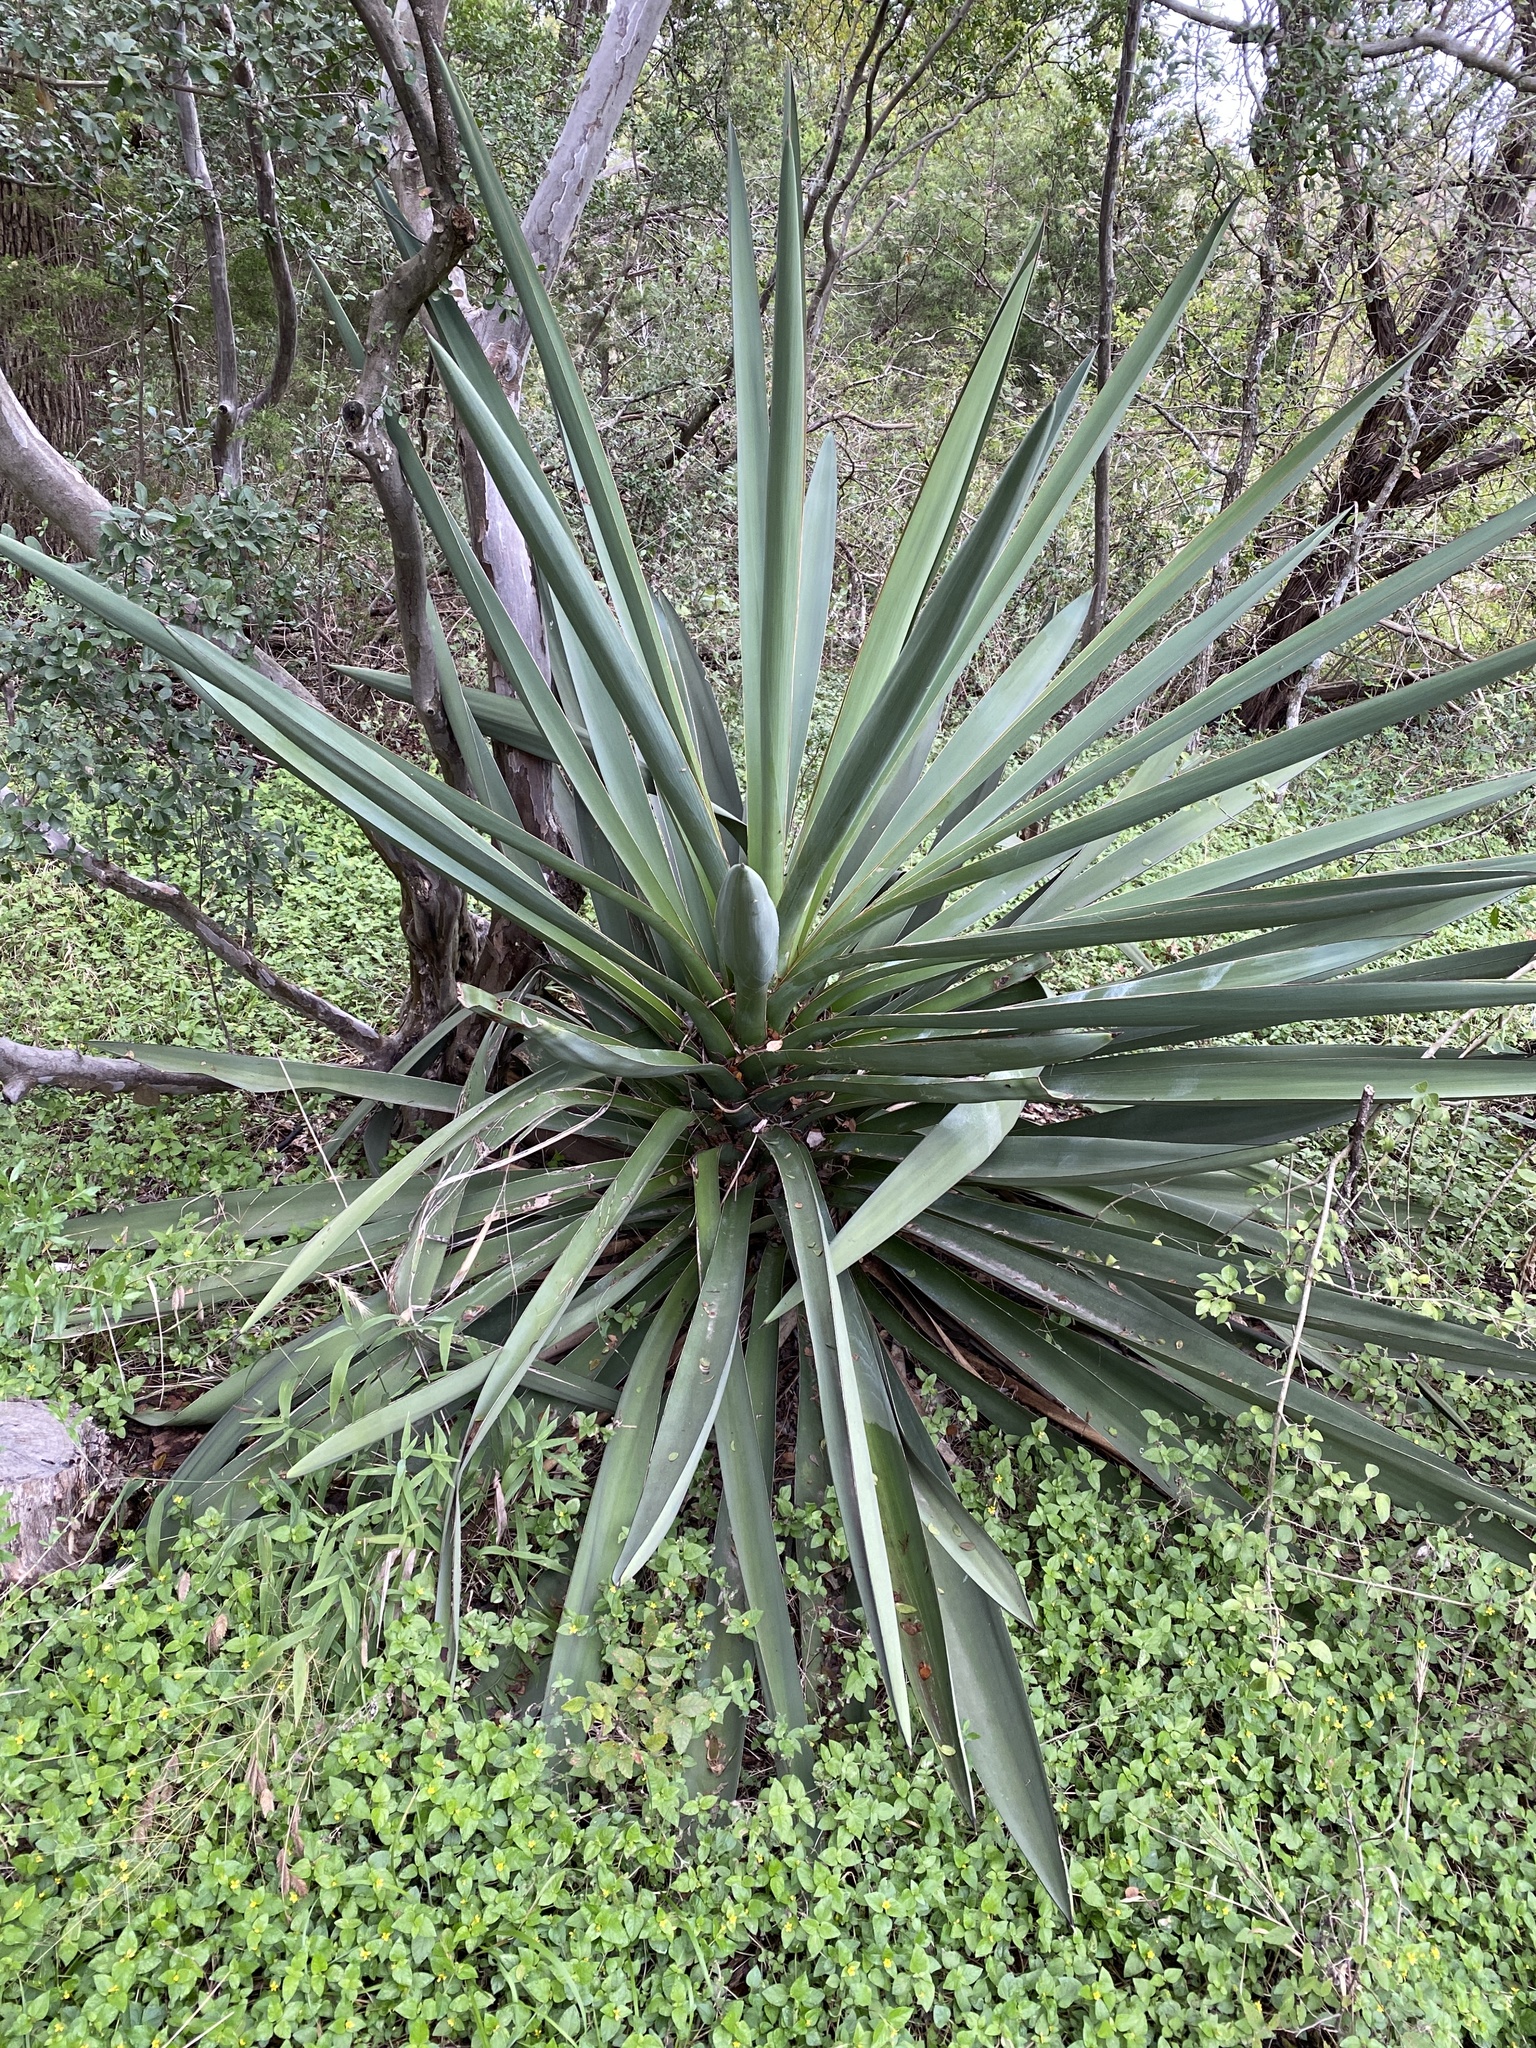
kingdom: Plantae
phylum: Tracheophyta
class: Liliopsida
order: Asparagales
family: Asparagaceae
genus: Yucca
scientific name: Yucca treculiana
